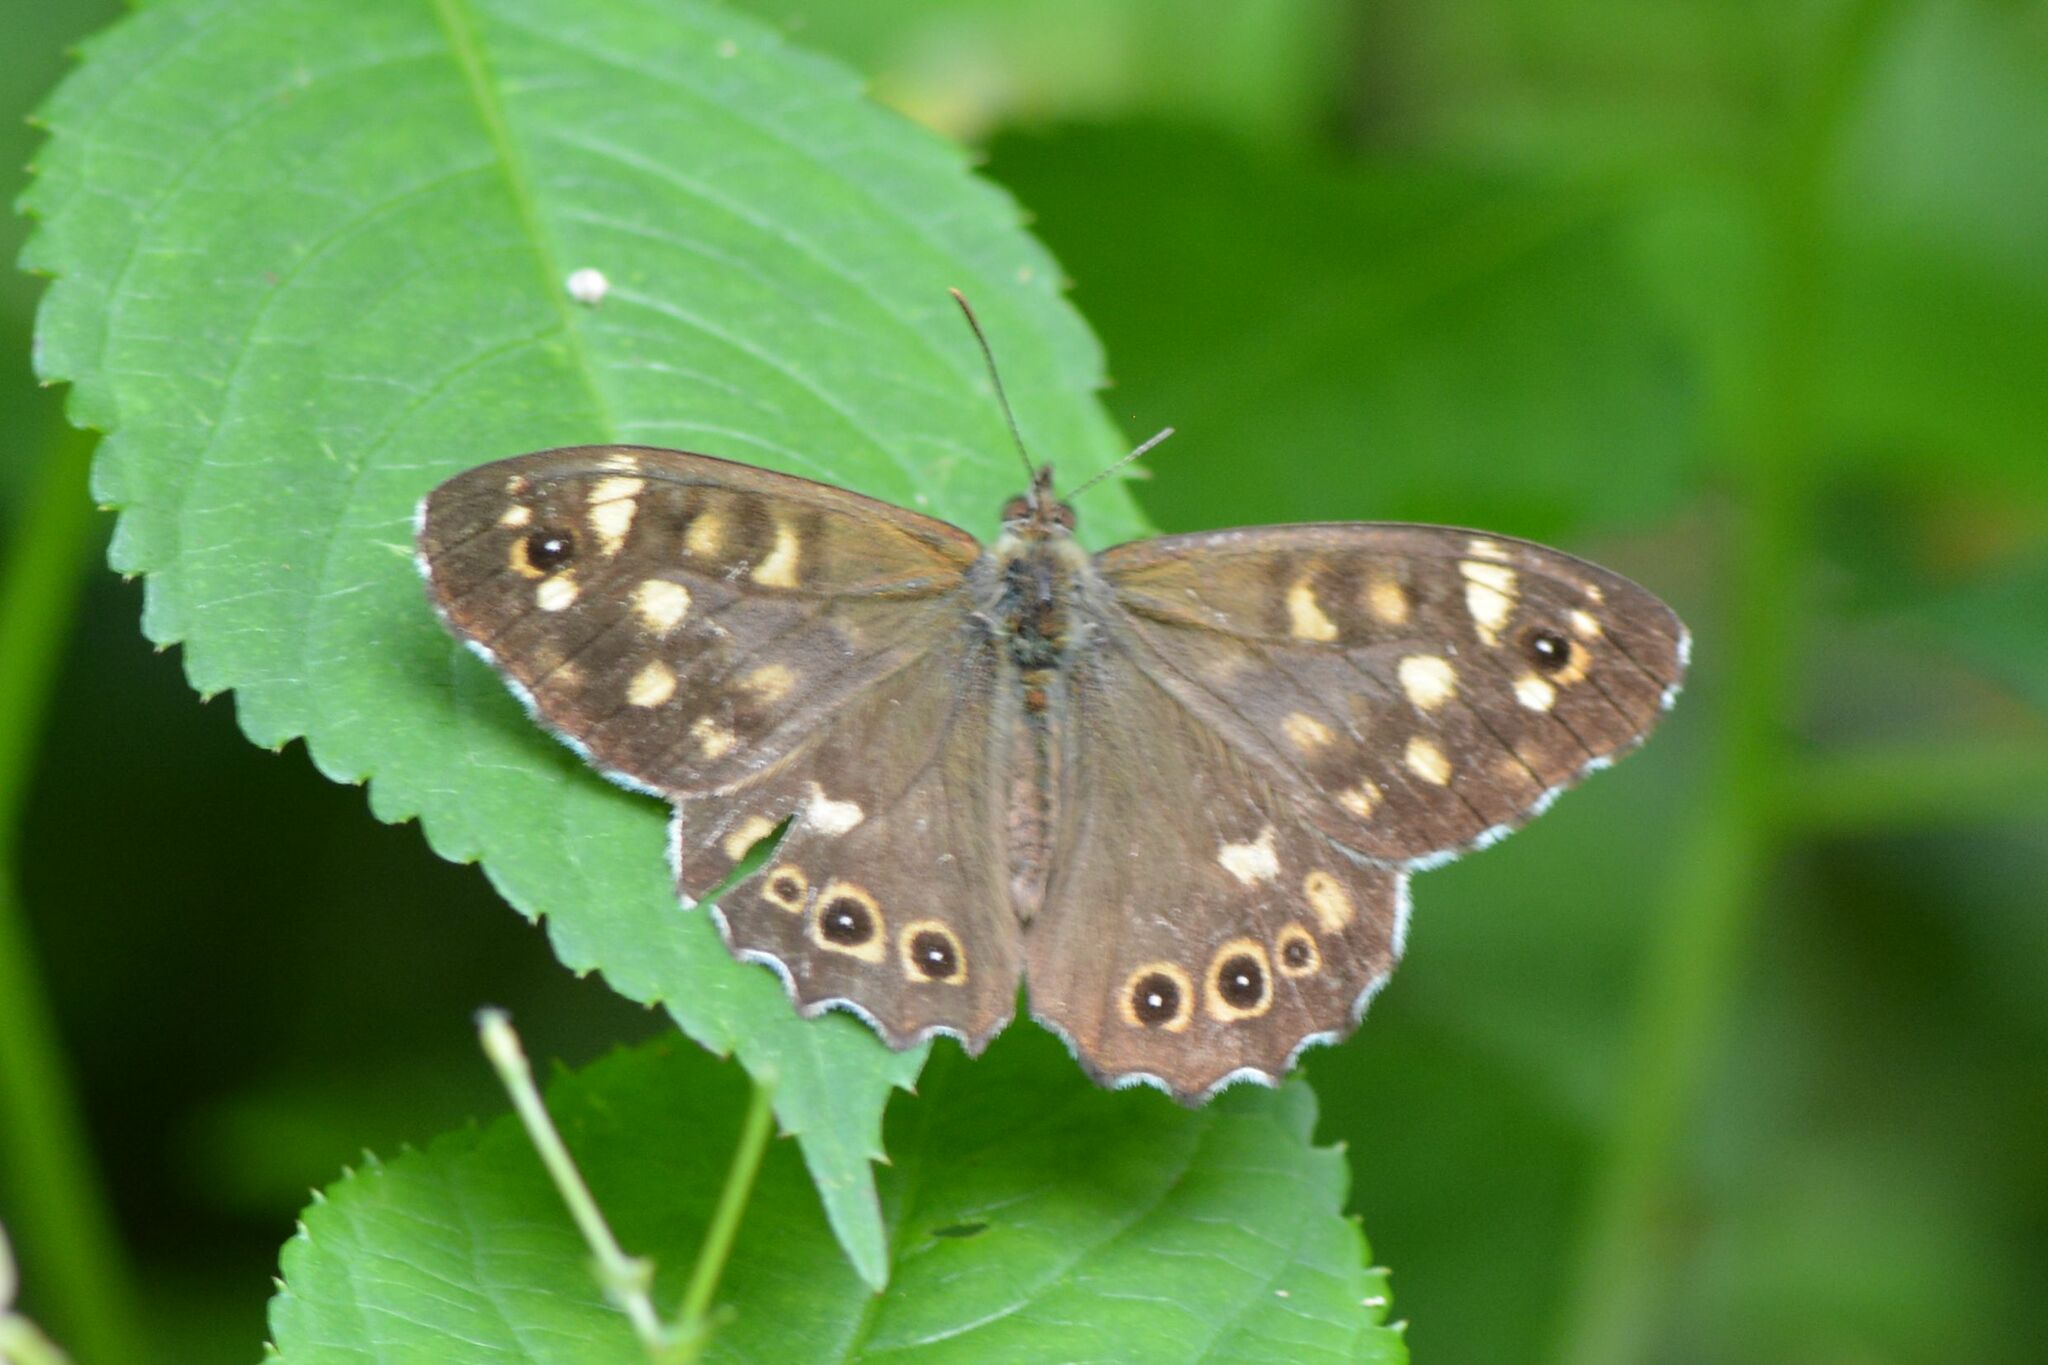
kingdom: Animalia
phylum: Arthropoda
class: Insecta
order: Lepidoptera
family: Nymphalidae
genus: Pararge
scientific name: Pararge aegeria
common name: Speckled wood
